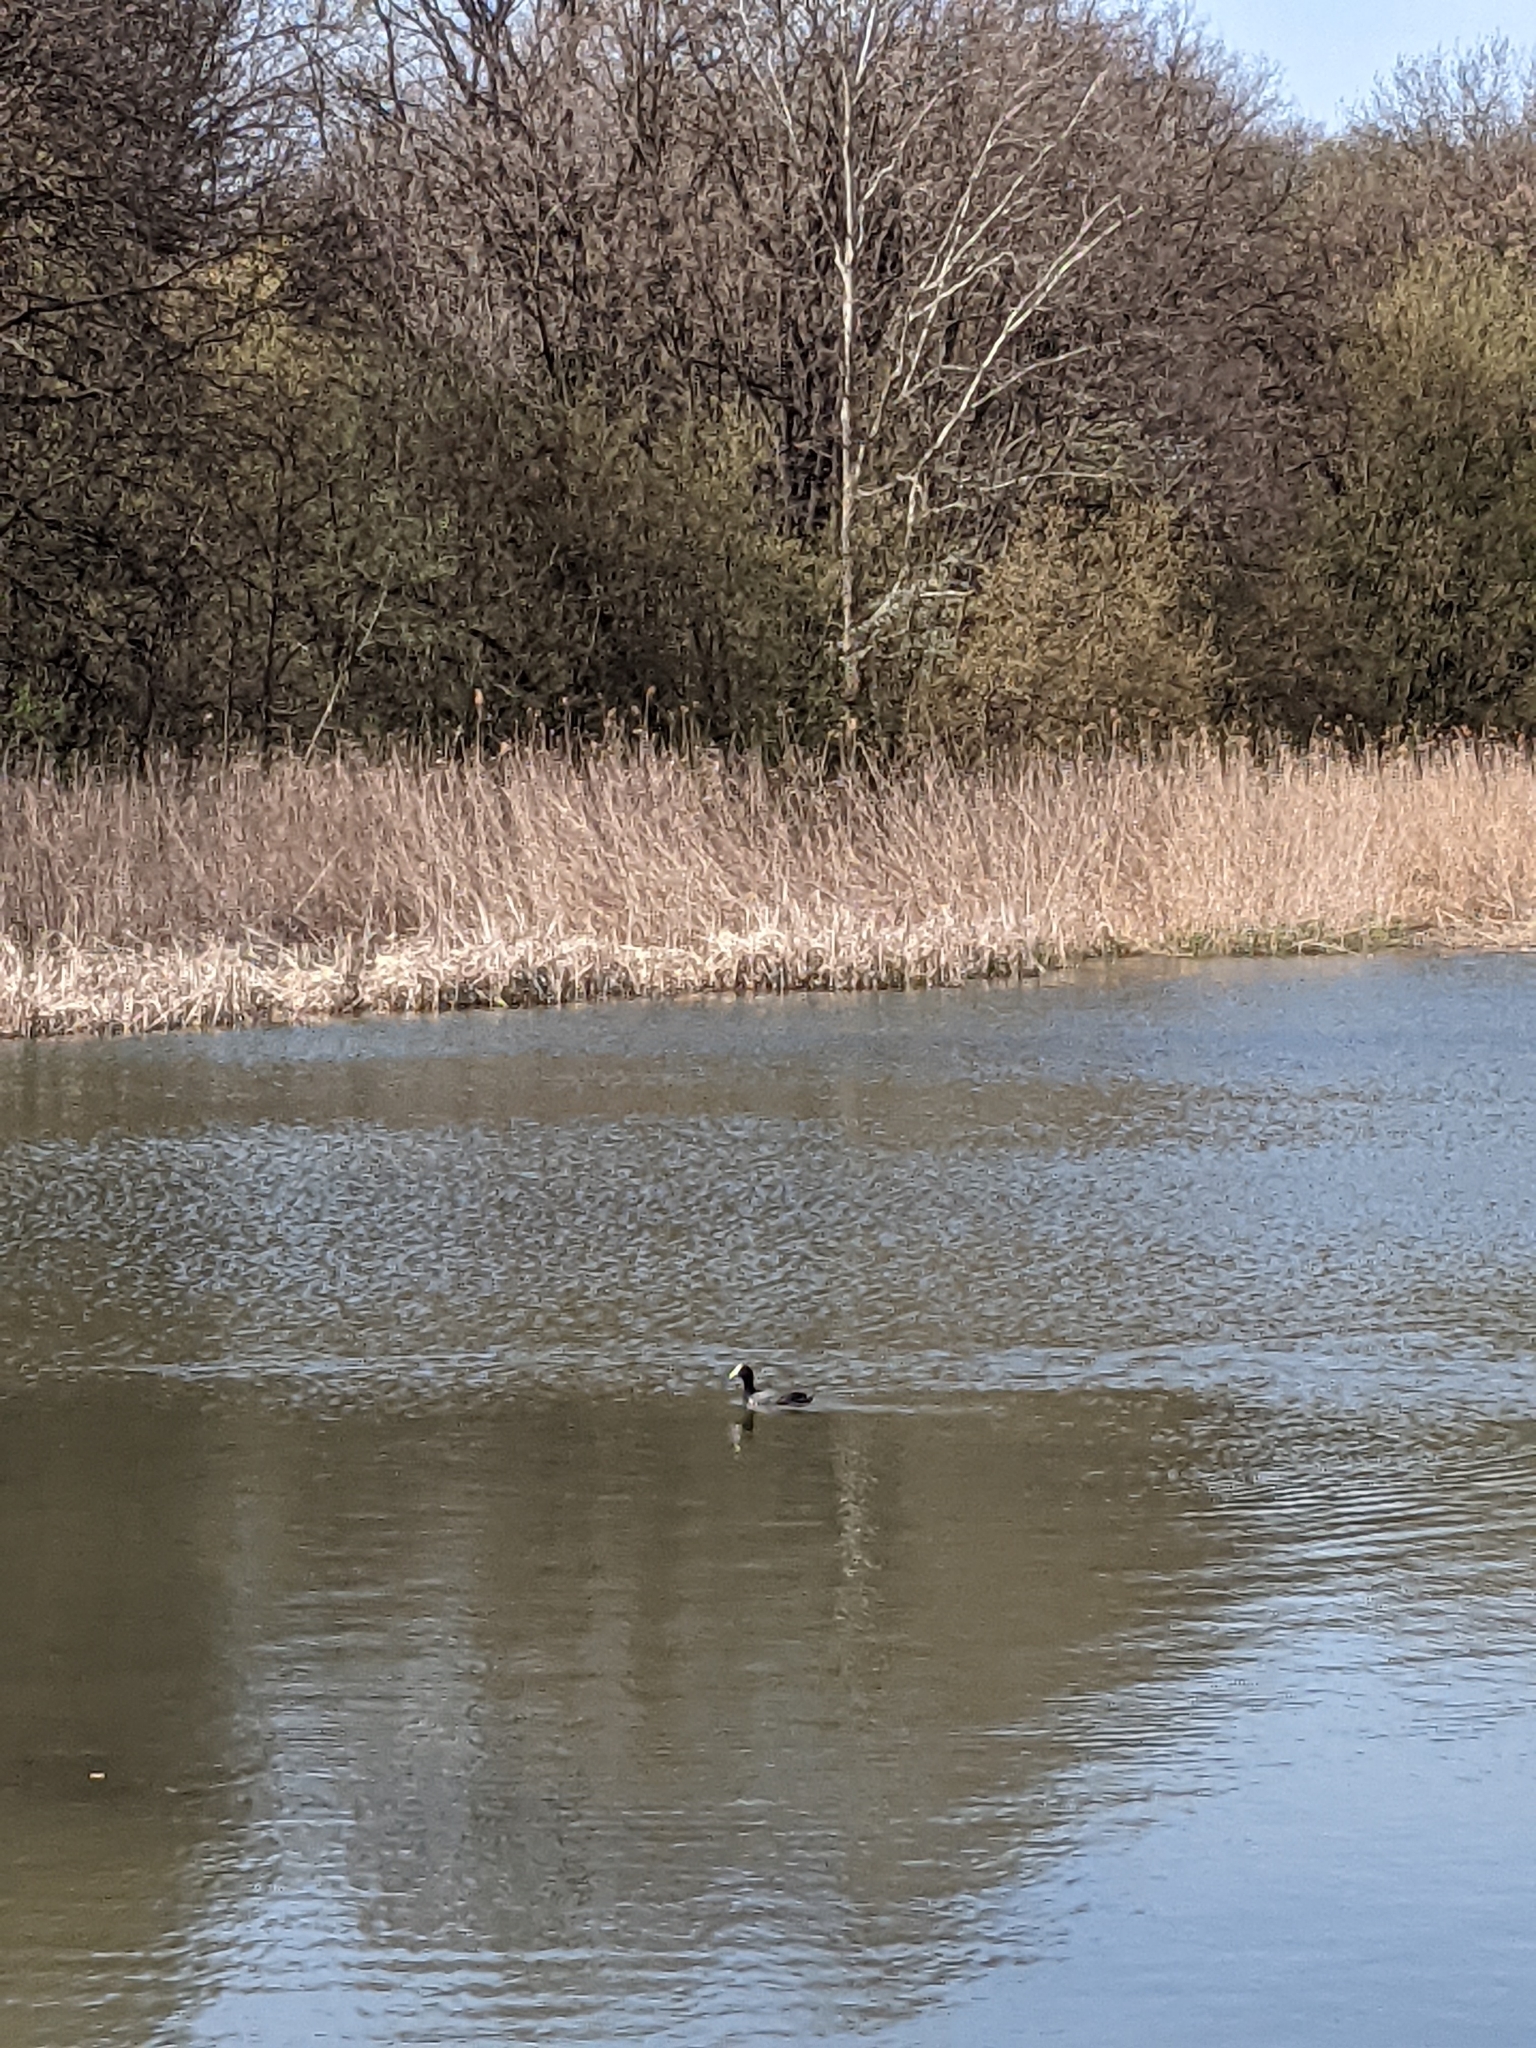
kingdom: Animalia
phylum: Chordata
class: Aves
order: Gruiformes
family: Rallidae
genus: Fulica
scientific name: Fulica atra
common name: Eurasian coot
